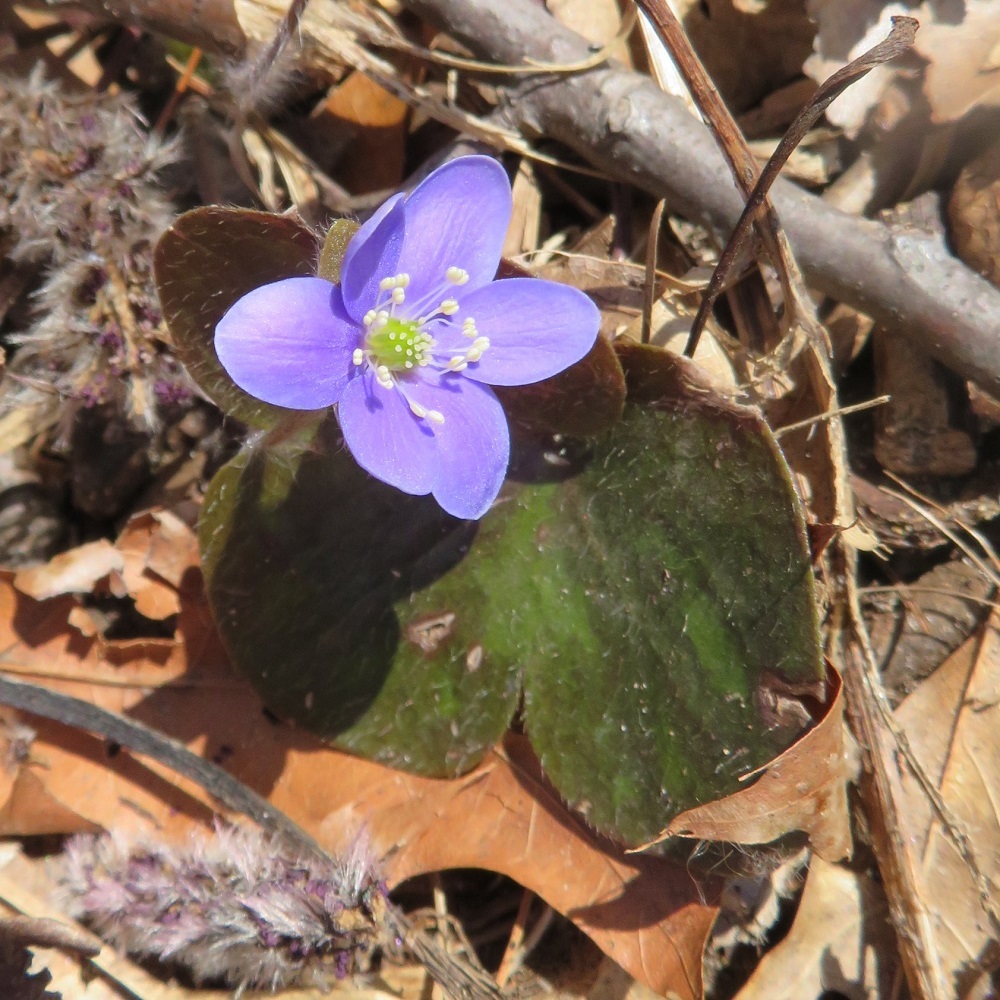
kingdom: Plantae
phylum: Tracheophyta
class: Magnoliopsida
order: Ranunculales
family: Ranunculaceae
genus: Hepatica
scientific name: Hepatica americana
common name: American hepatica
